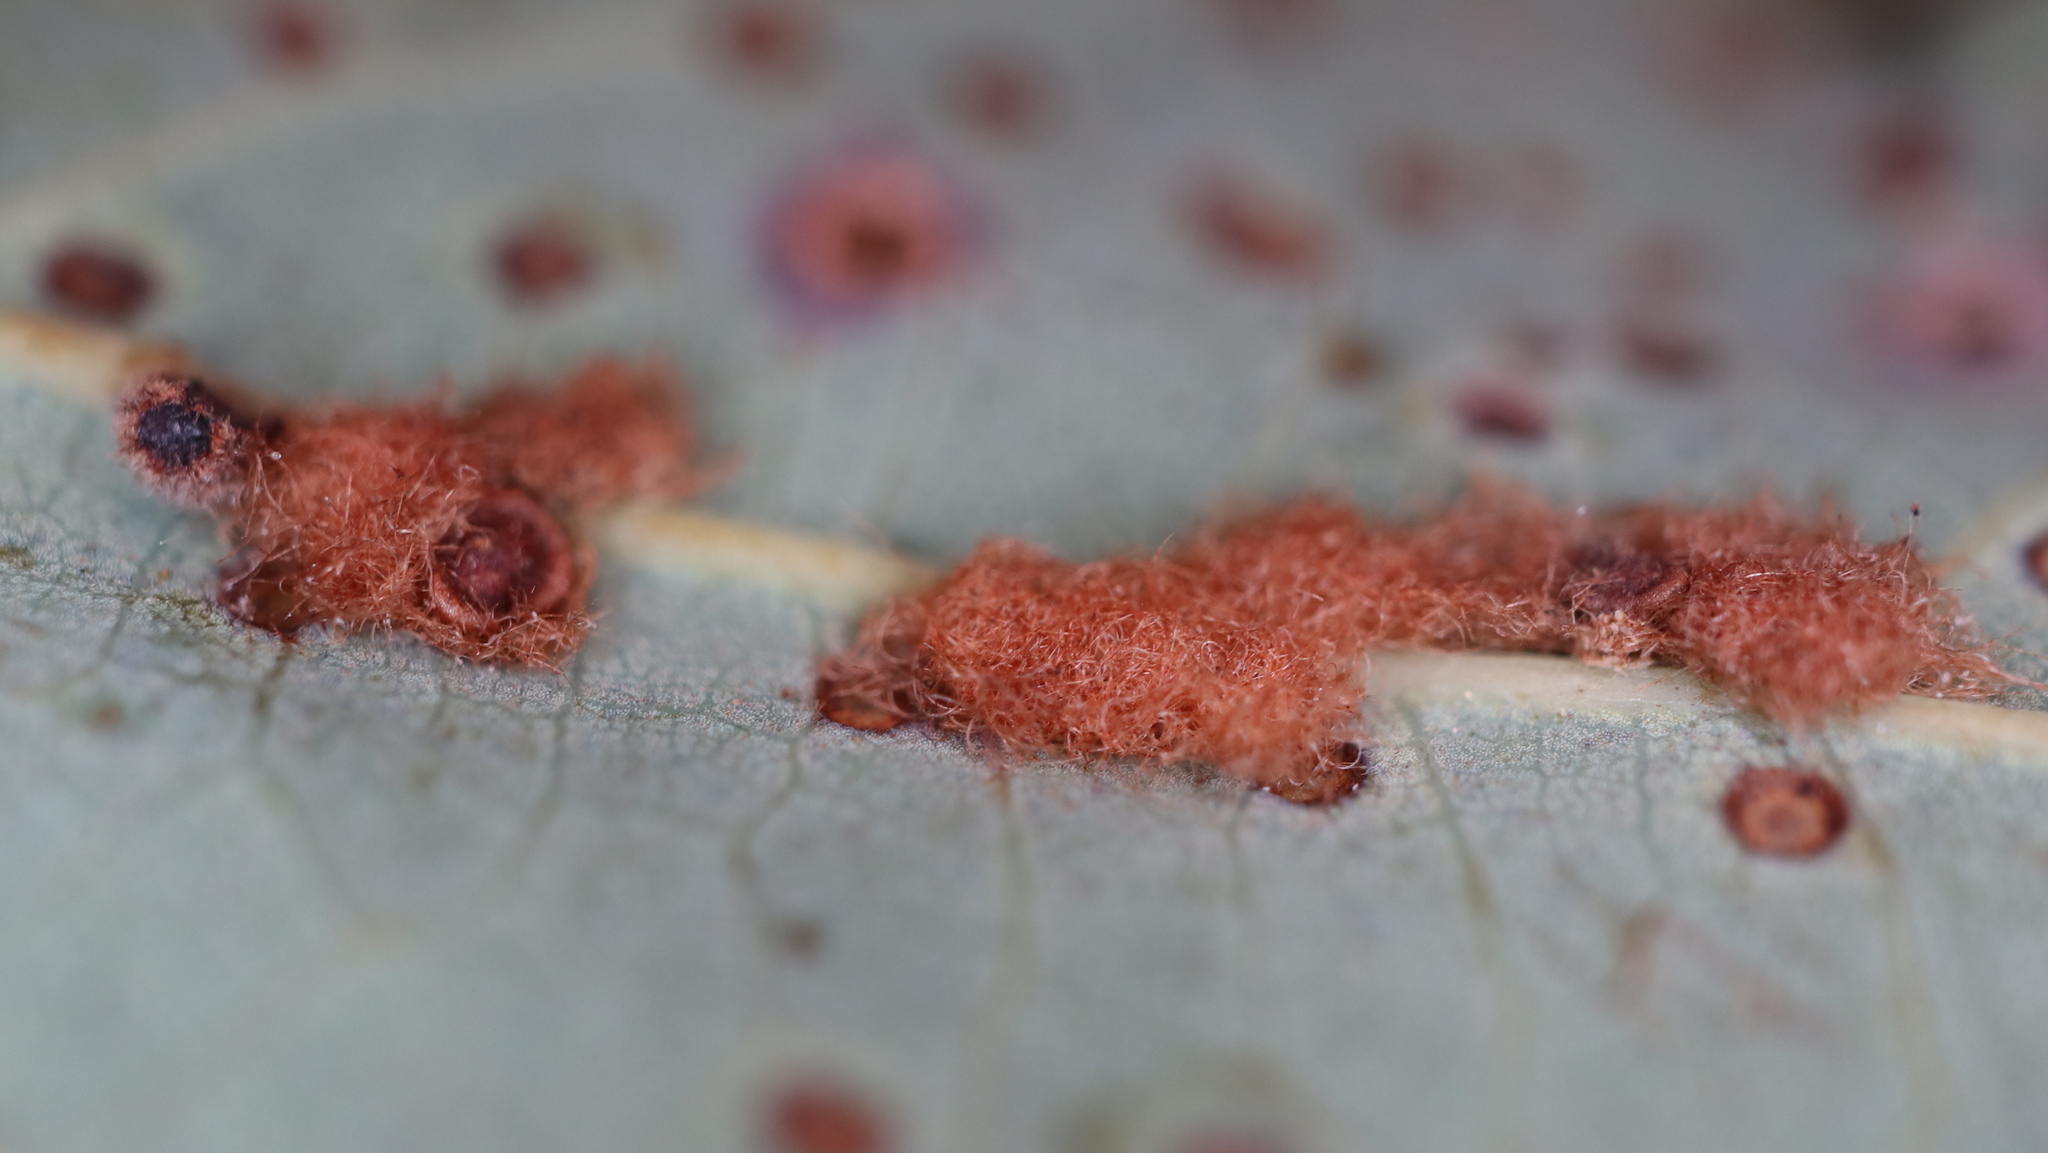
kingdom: Animalia
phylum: Arthropoda
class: Insecta
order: Hymenoptera
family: Cynipidae
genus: Neuroterus
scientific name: Neuroterus quercusverrucarum
